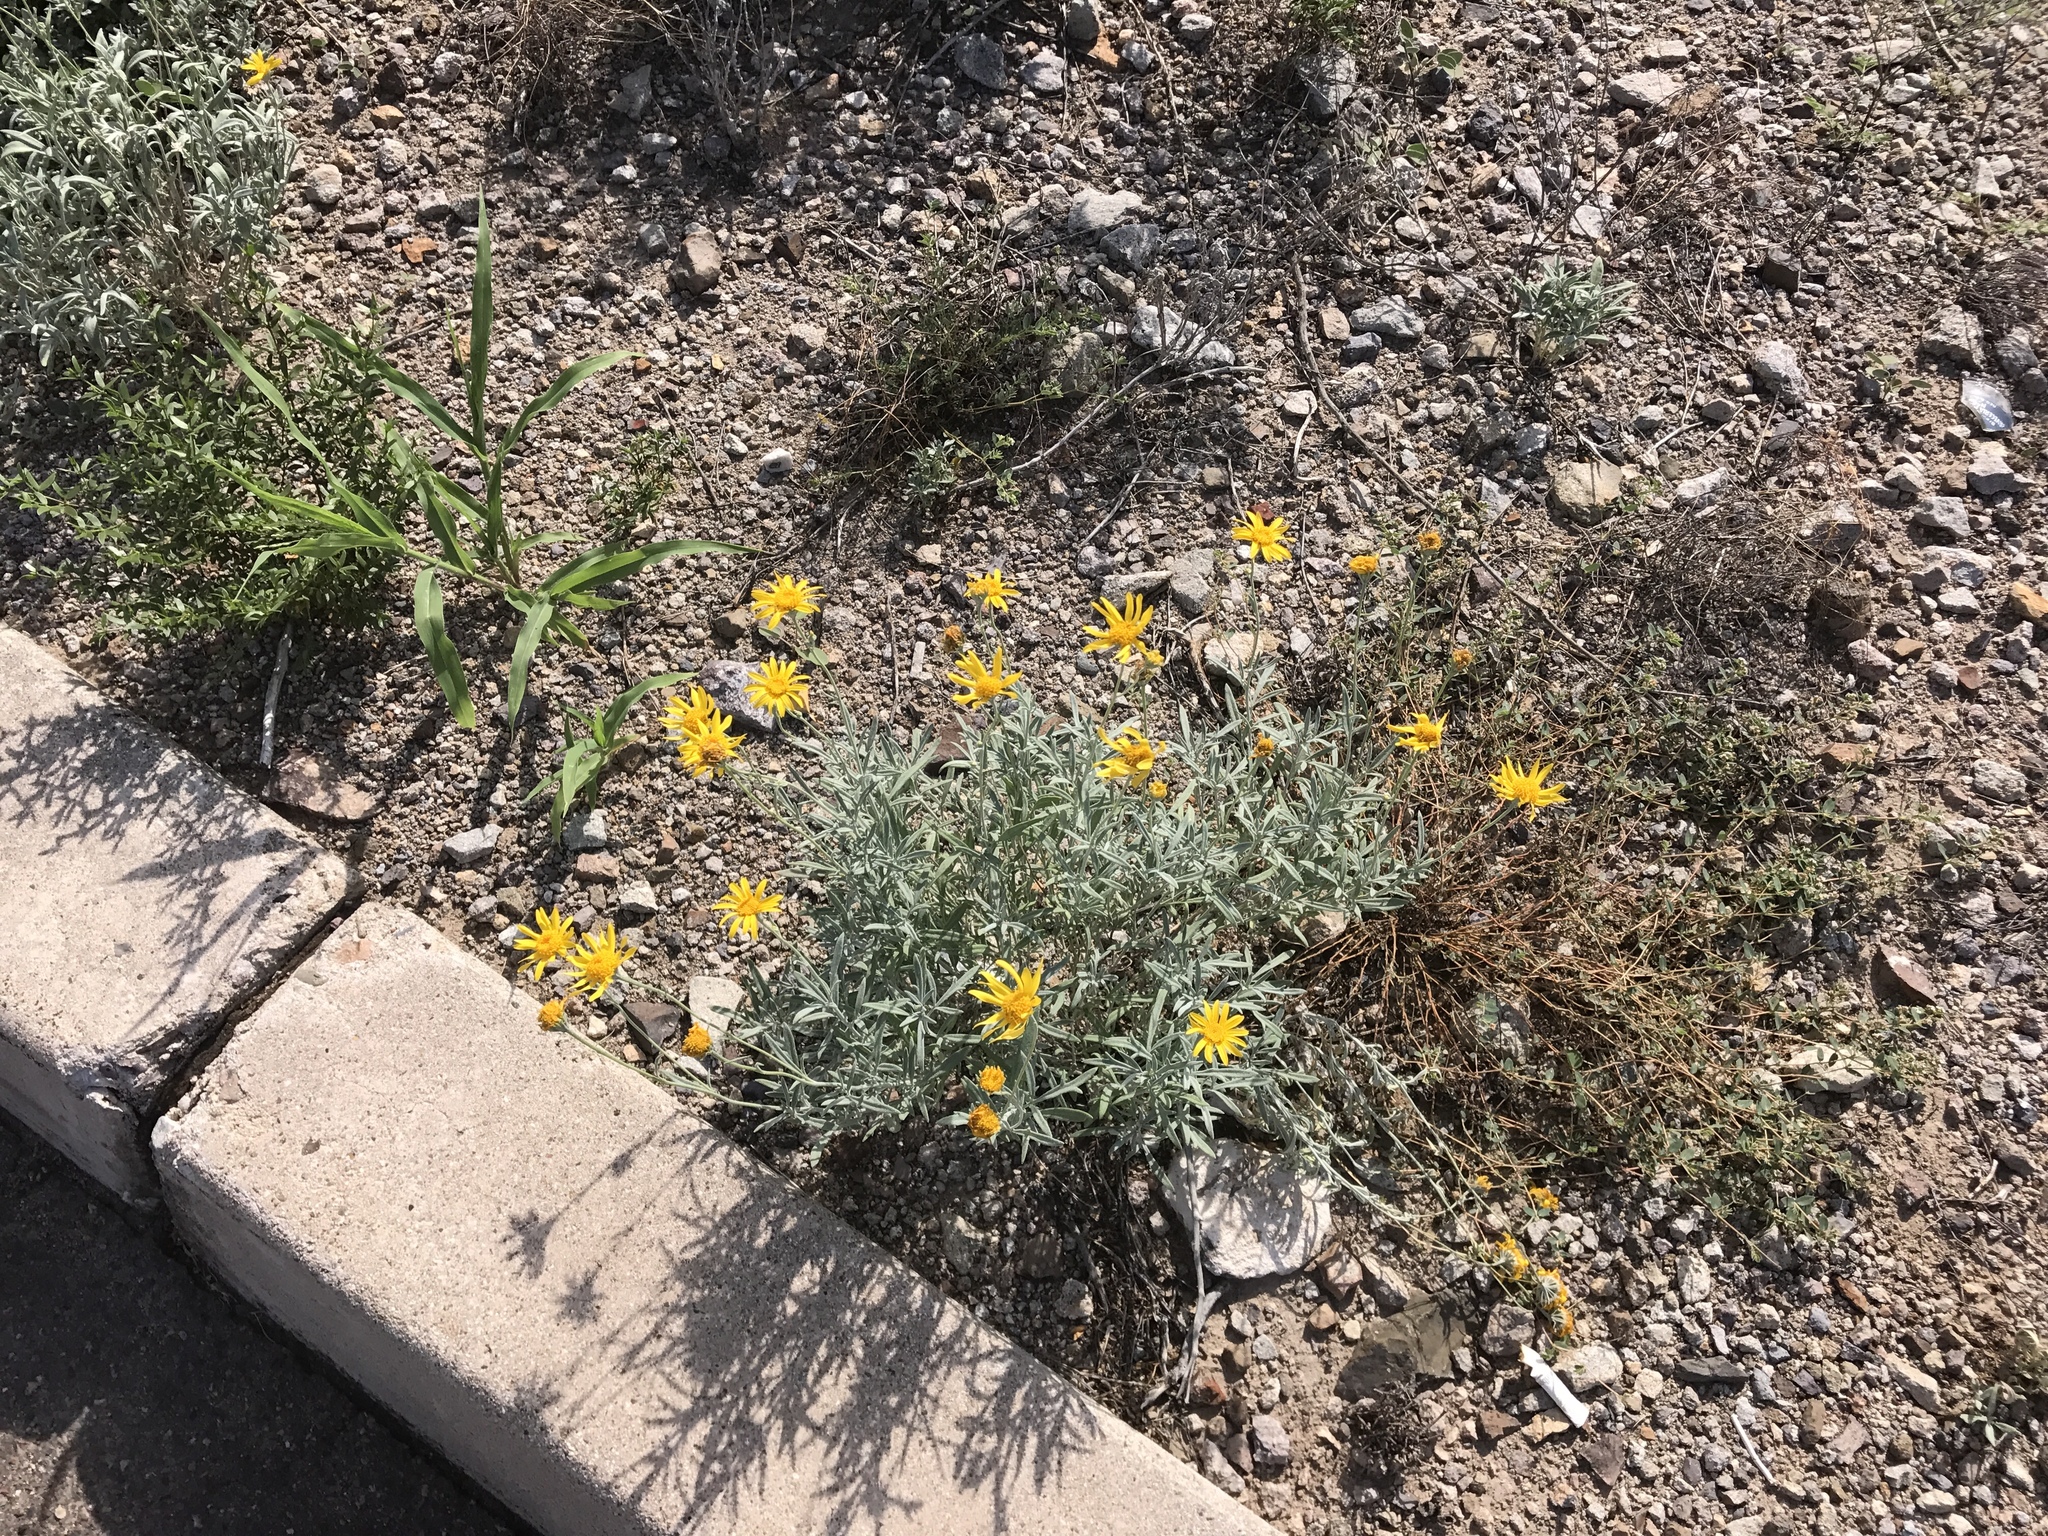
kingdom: Plantae
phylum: Tracheophyta
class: Magnoliopsida
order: Asterales
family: Asteraceae
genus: Picradeniopsis
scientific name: Picradeniopsis absinthifolia
